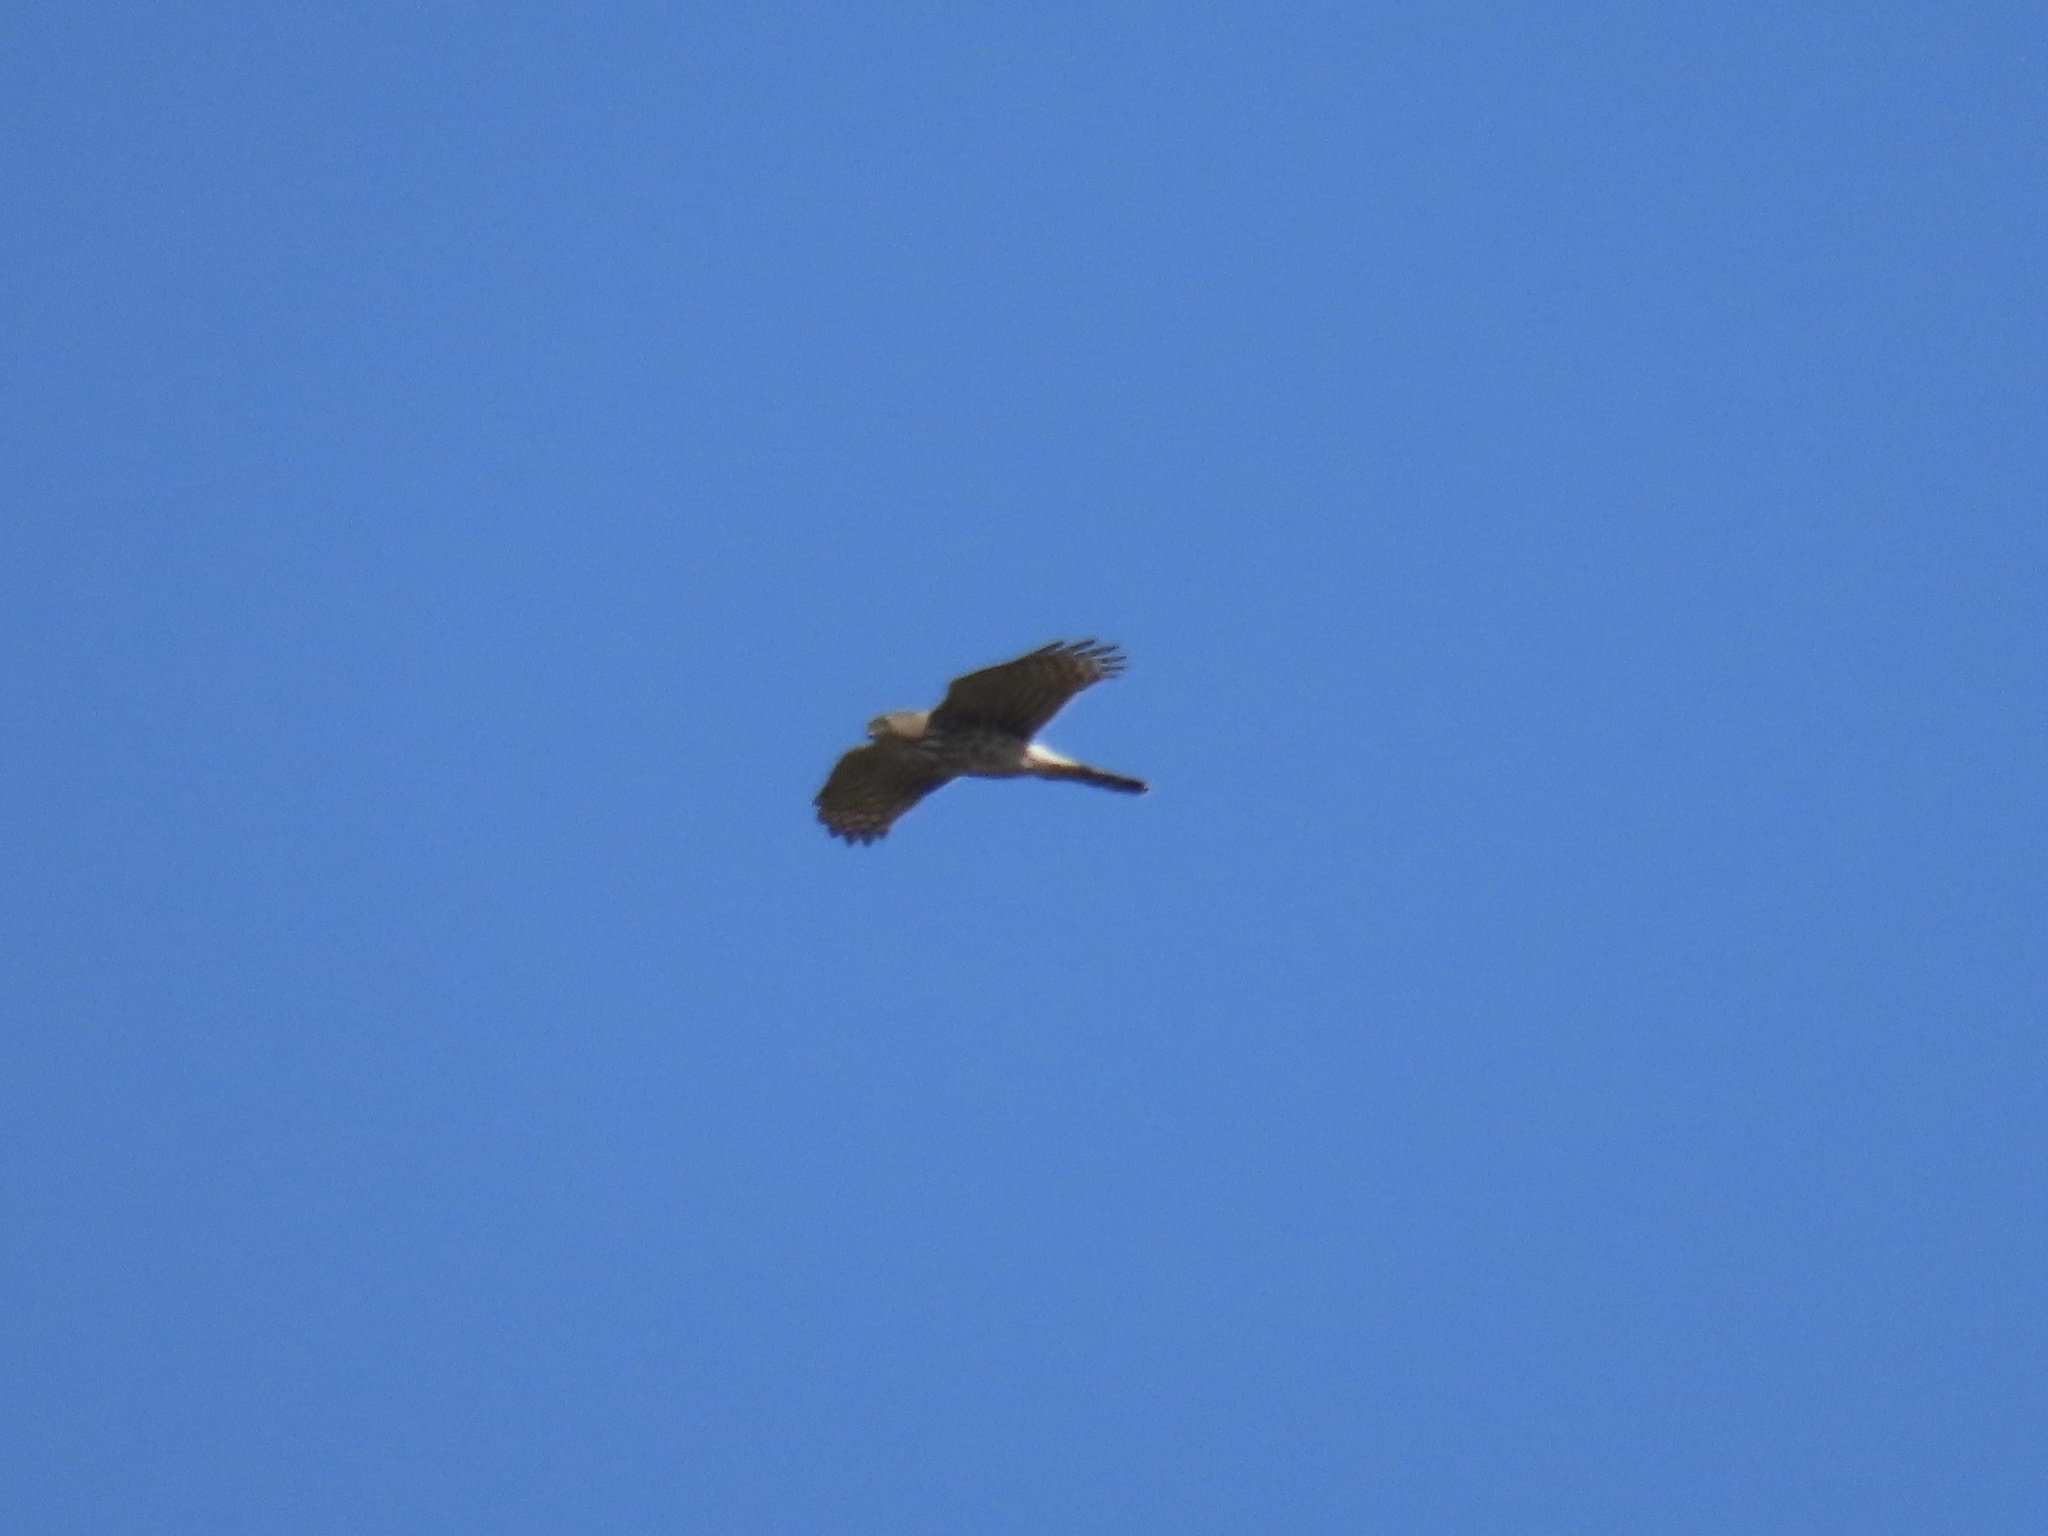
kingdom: Animalia
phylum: Chordata
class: Aves
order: Accipitriformes
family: Accipitridae
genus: Accipiter
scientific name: Accipiter cooperii
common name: Cooper's hawk
